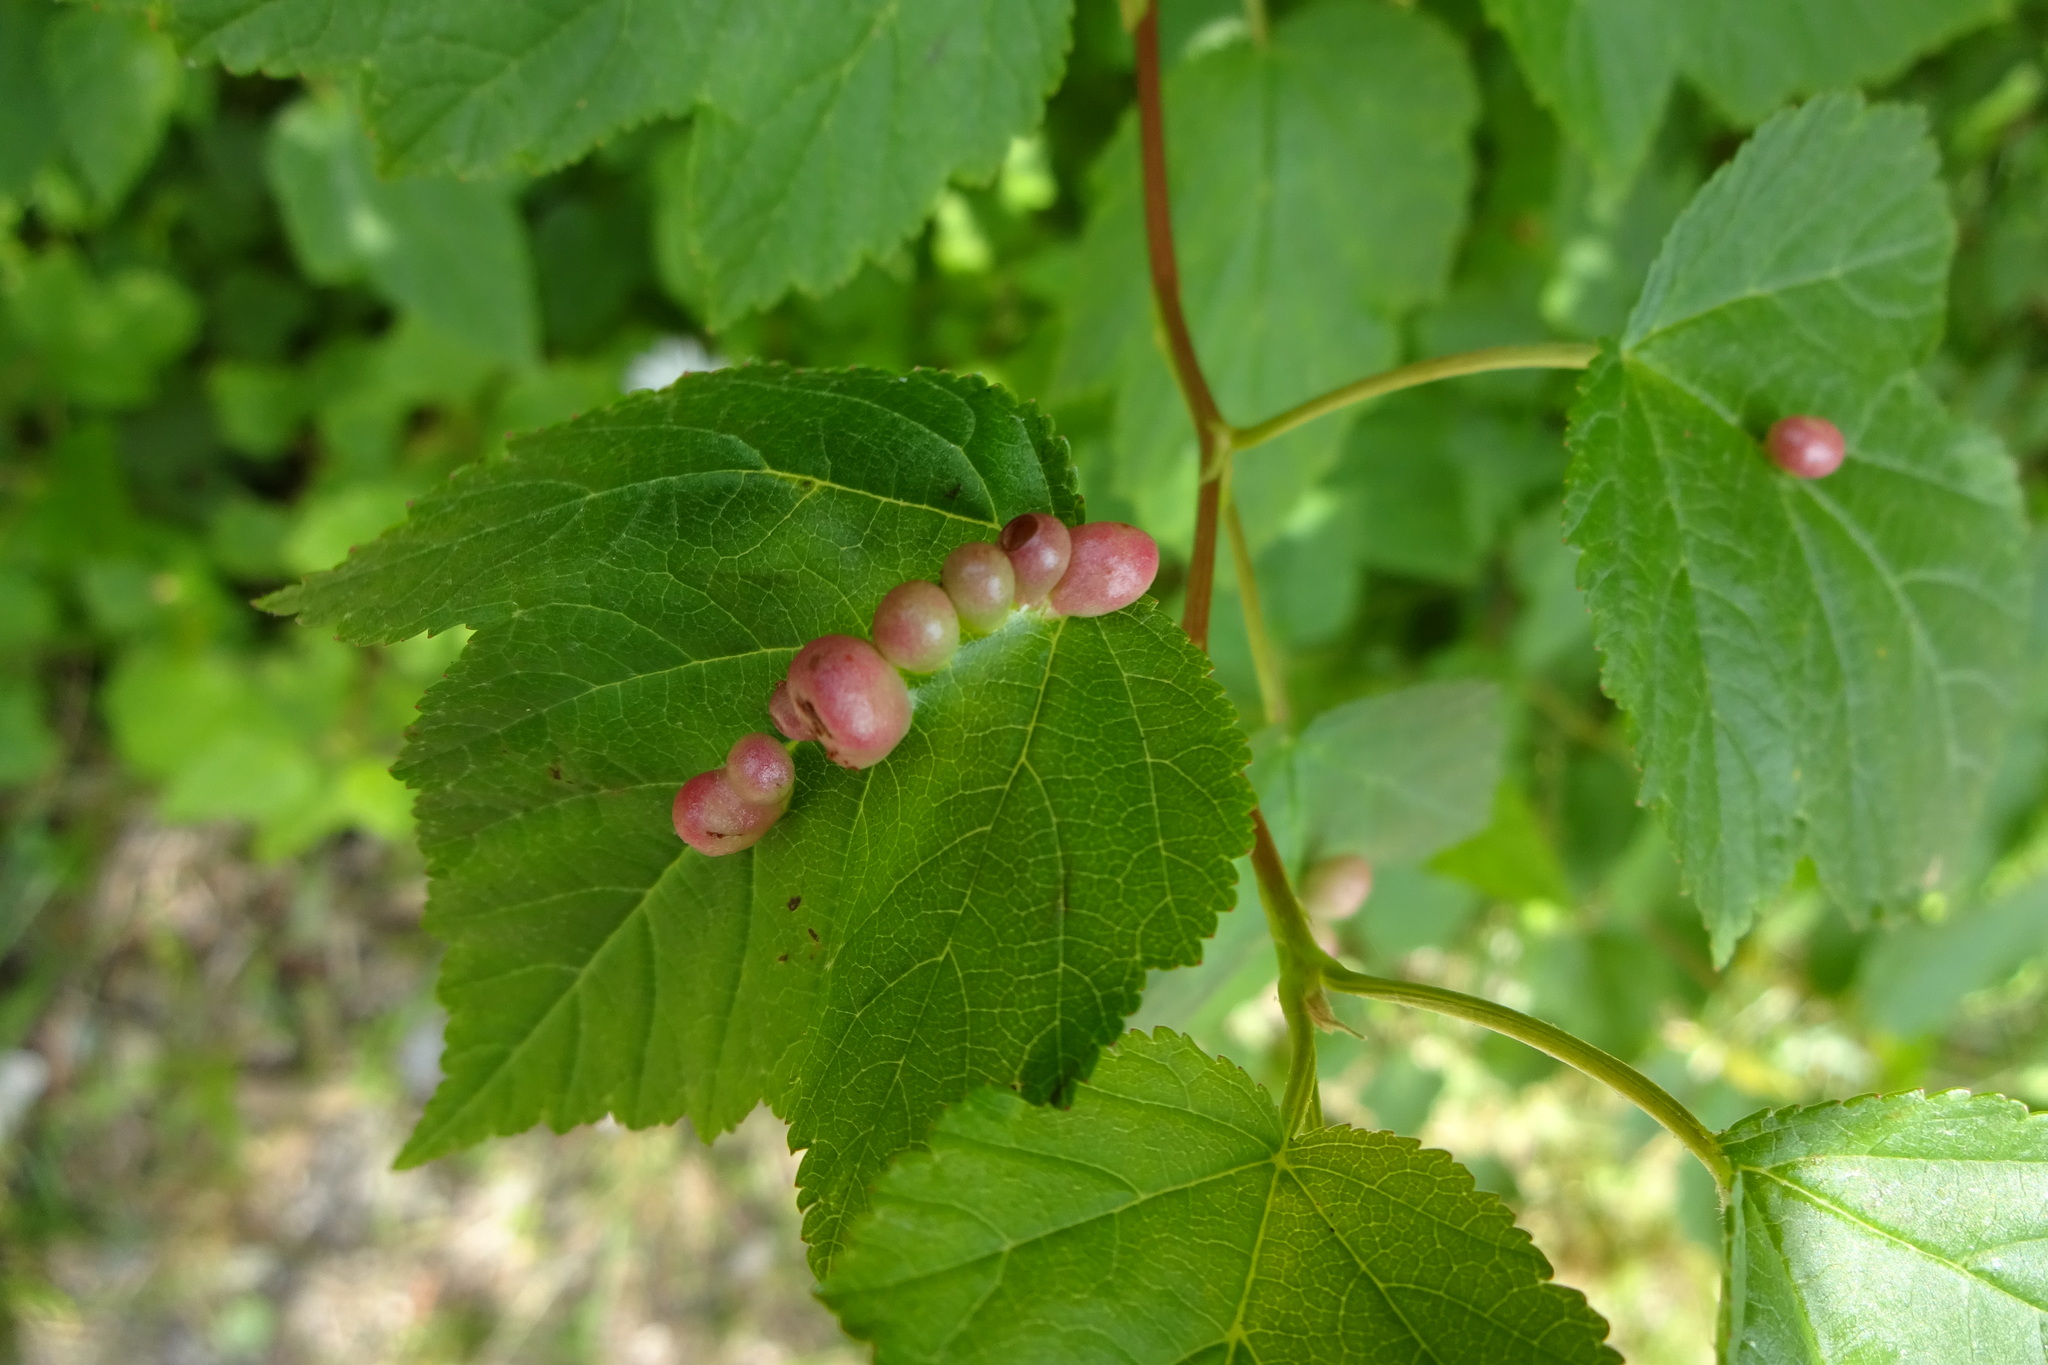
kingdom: Plantae
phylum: Tracheophyta
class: Magnoliopsida
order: Rosales
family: Rosaceae
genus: Physocarpus
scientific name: Physocarpus opulifolius
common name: Ninebark
